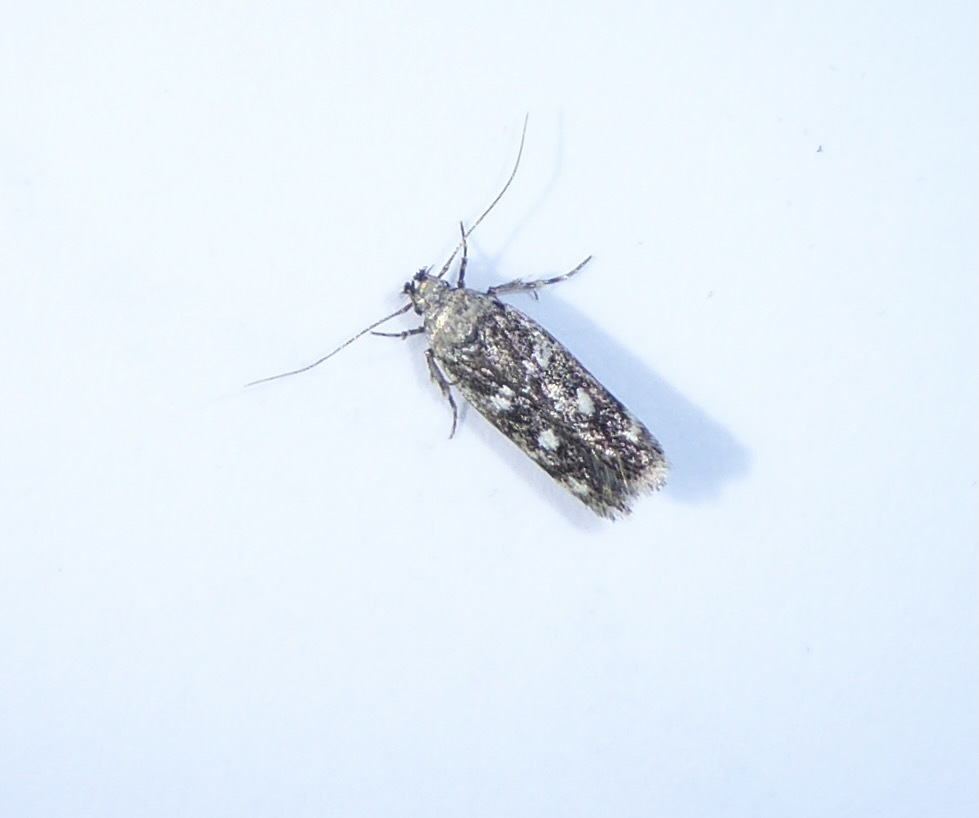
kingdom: Animalia
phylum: Arthropoda
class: Insecta
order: Lepidoptera
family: Gelechiidae
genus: Gelechia
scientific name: Gelechia sestertiella
